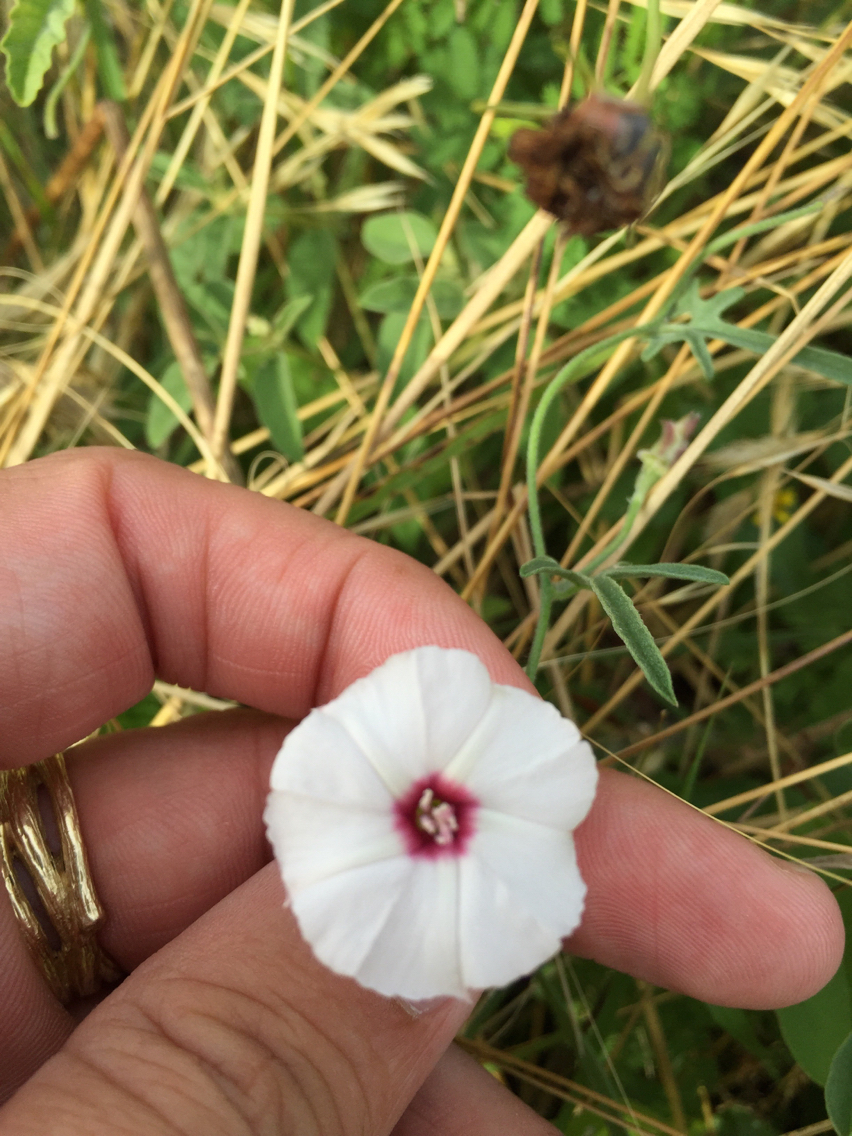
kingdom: Plantae
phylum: Tracheophyta
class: Magnoliopsida
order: Solanales
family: Convolvulaceae
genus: Convolvulus
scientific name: Convolvulus equitans
